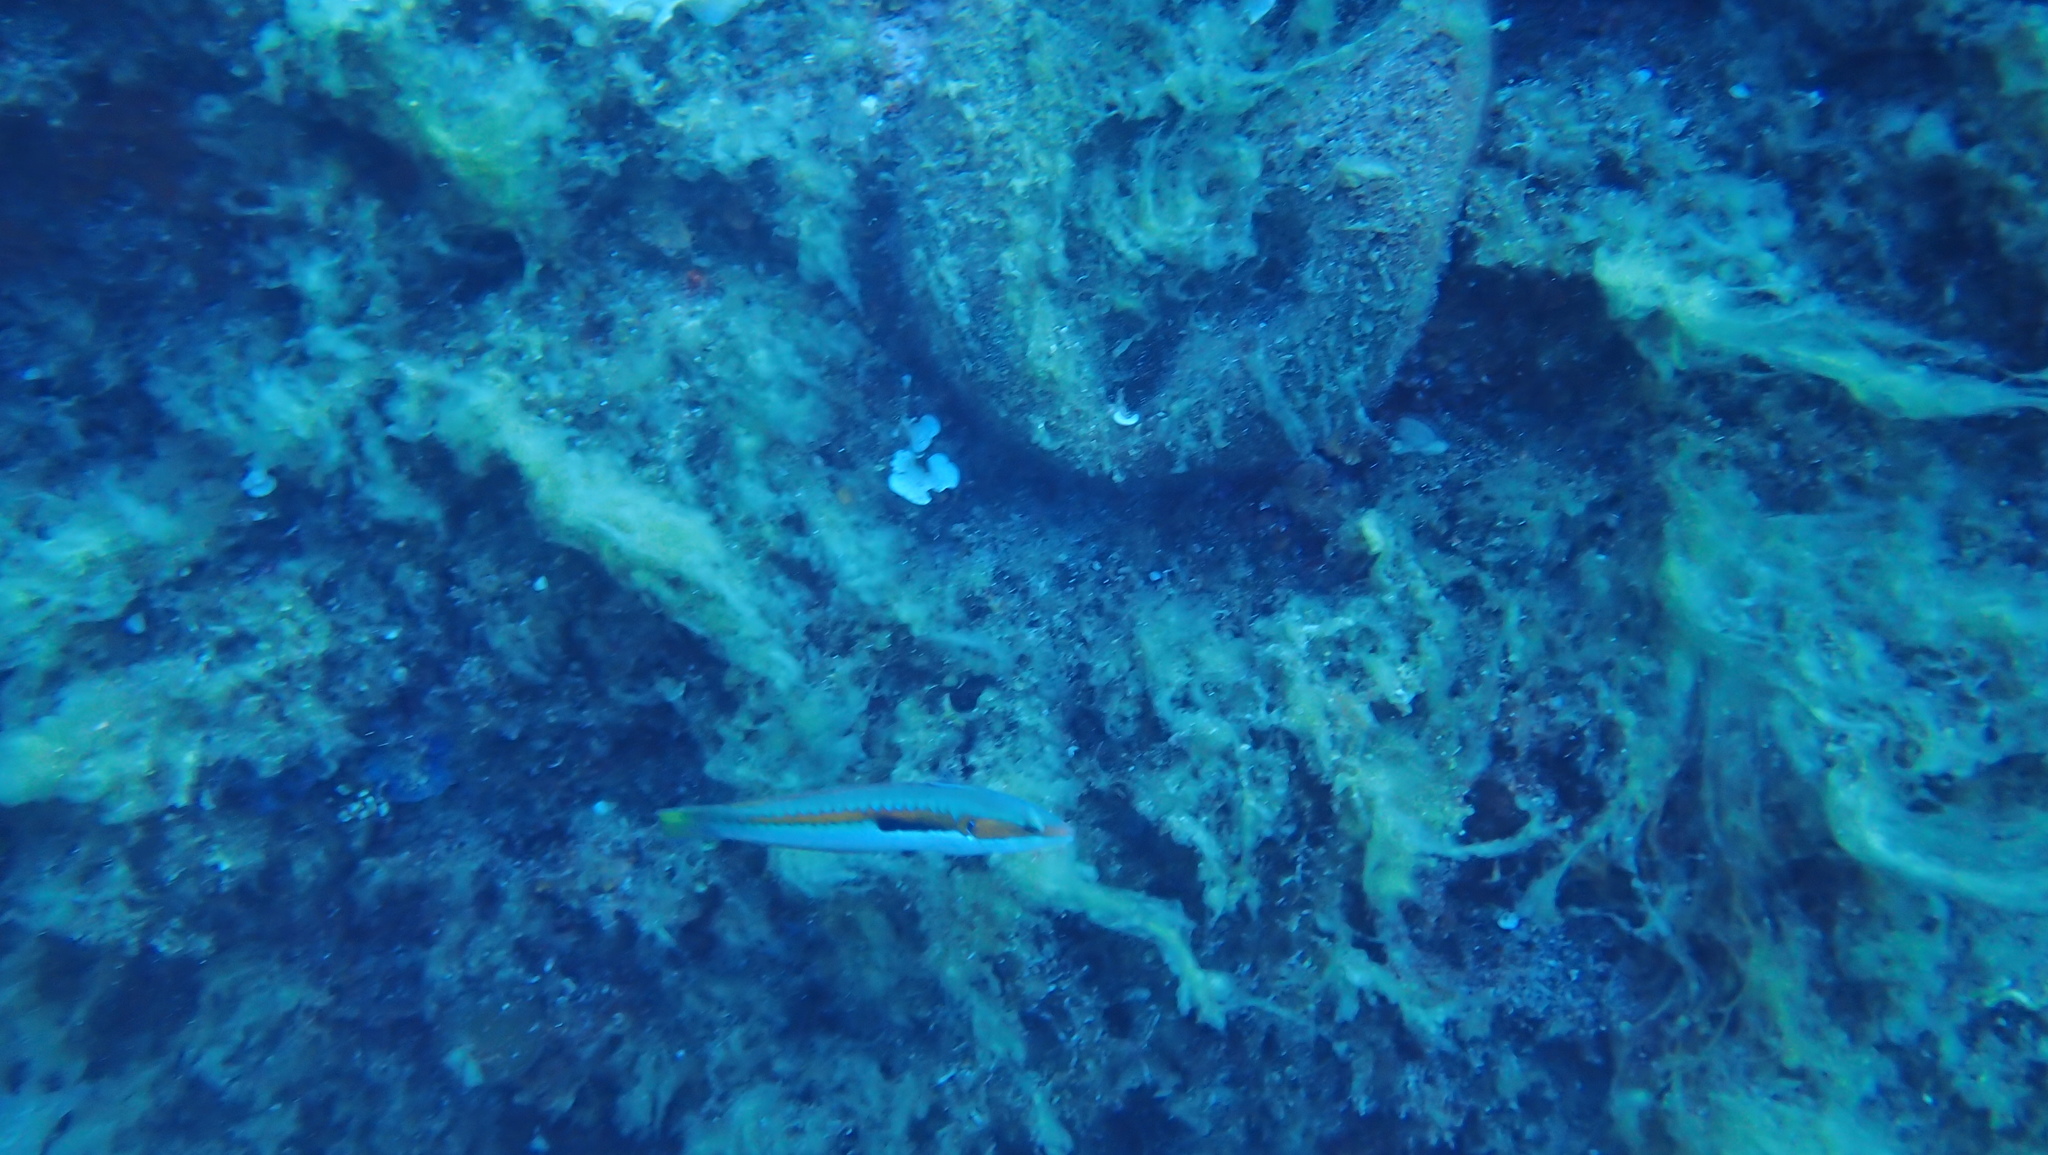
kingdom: Animalia
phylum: Chordata
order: Perciformes
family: Labridae
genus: Coris
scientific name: Coris julis
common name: Rainbow wrasse
